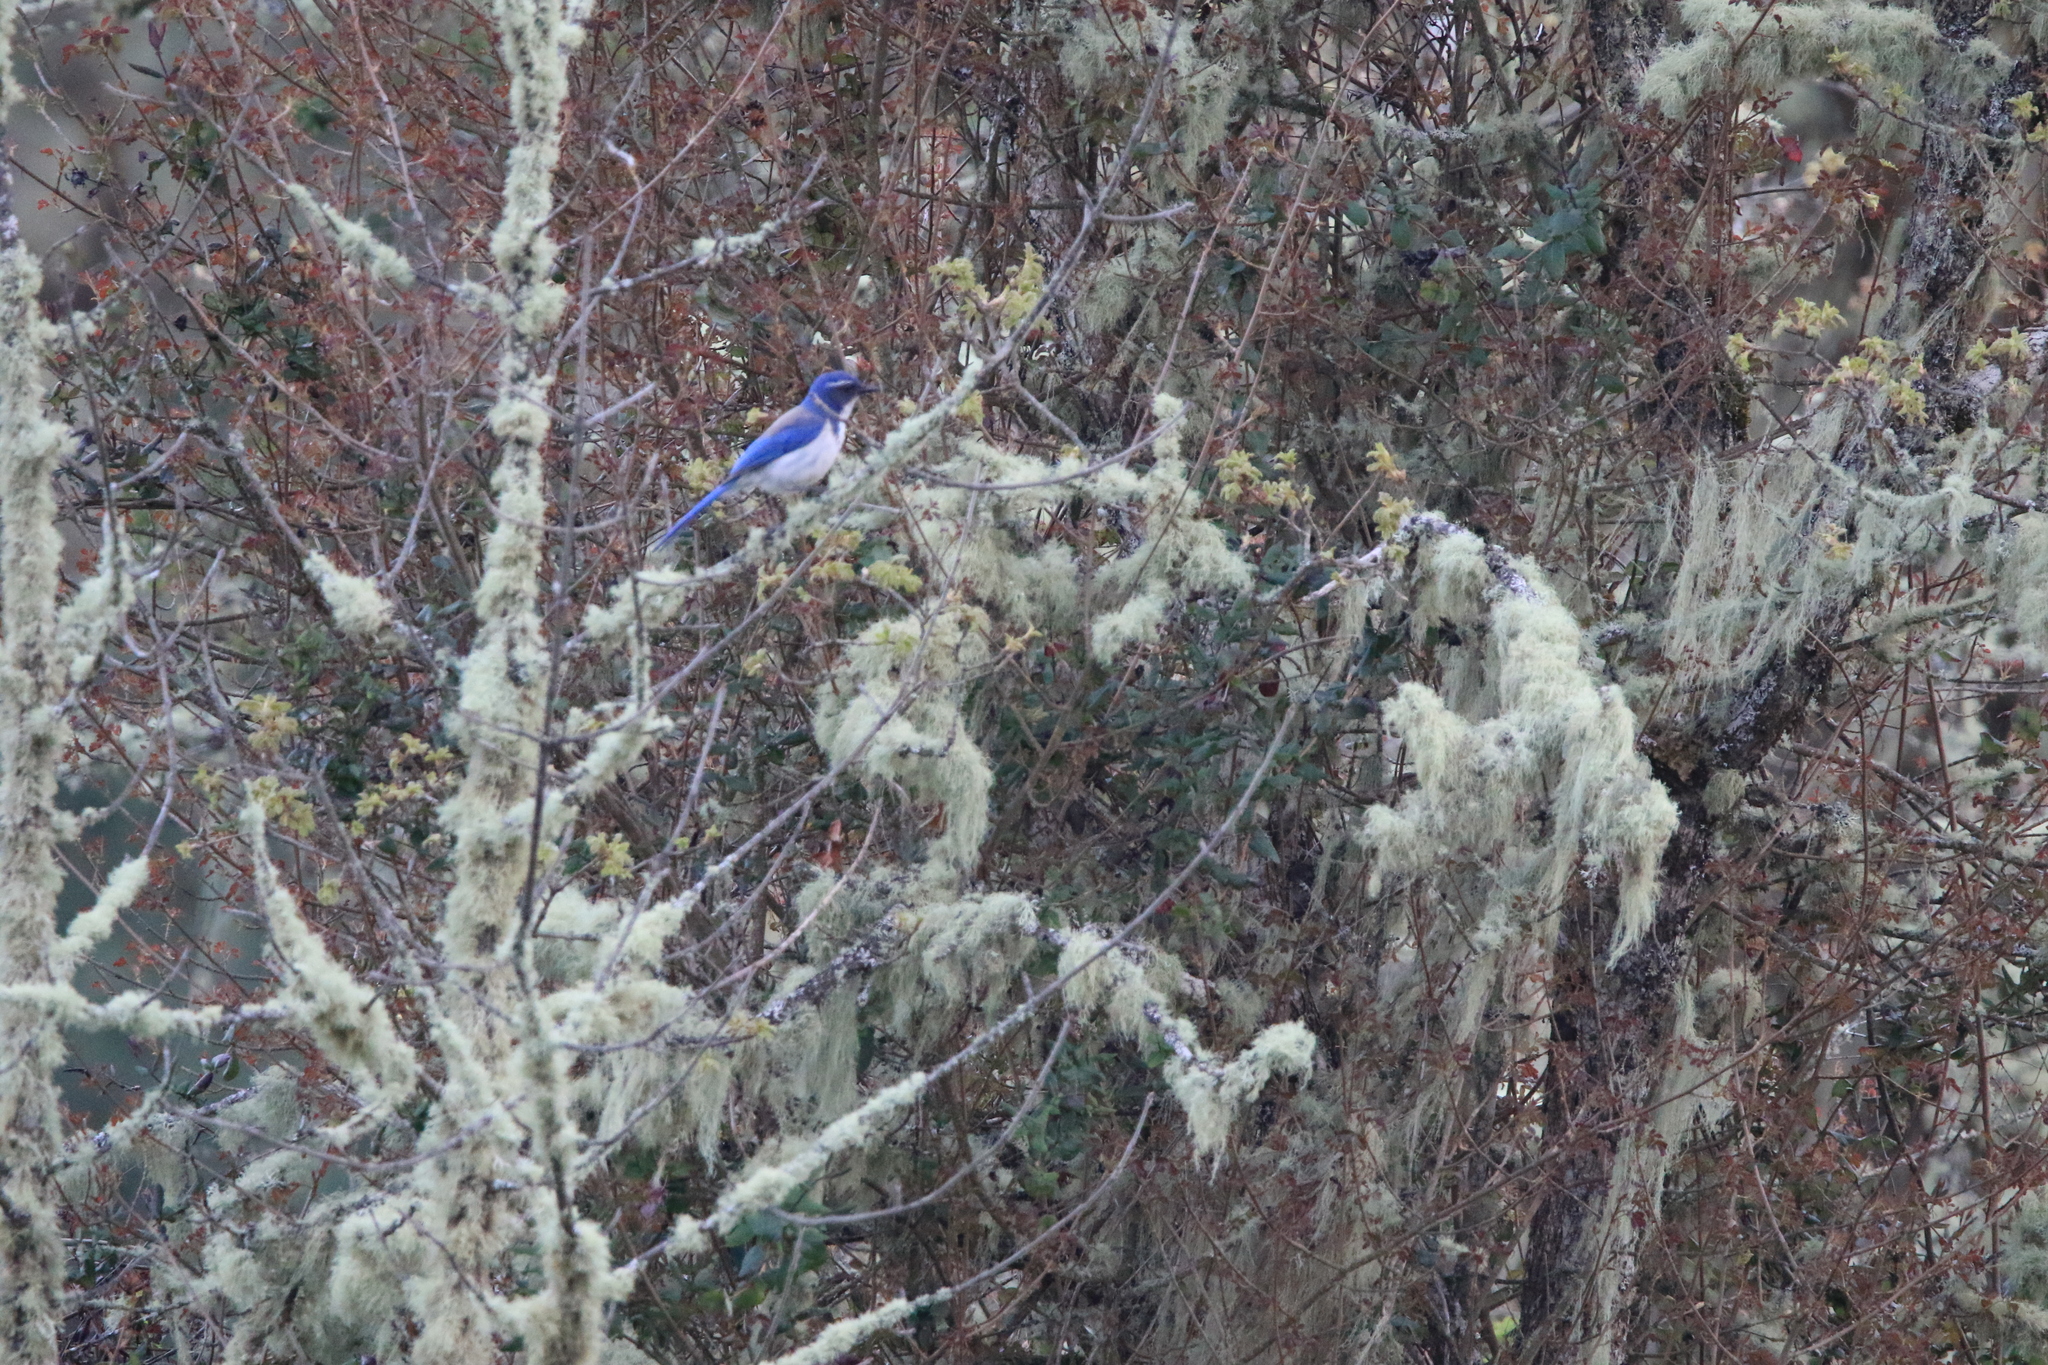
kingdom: Animalia
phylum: Chordata
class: Aves
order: Passeriformes
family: Corvidae
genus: Aphelocoma
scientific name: Aphelocoma californica
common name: California scrub-jay
